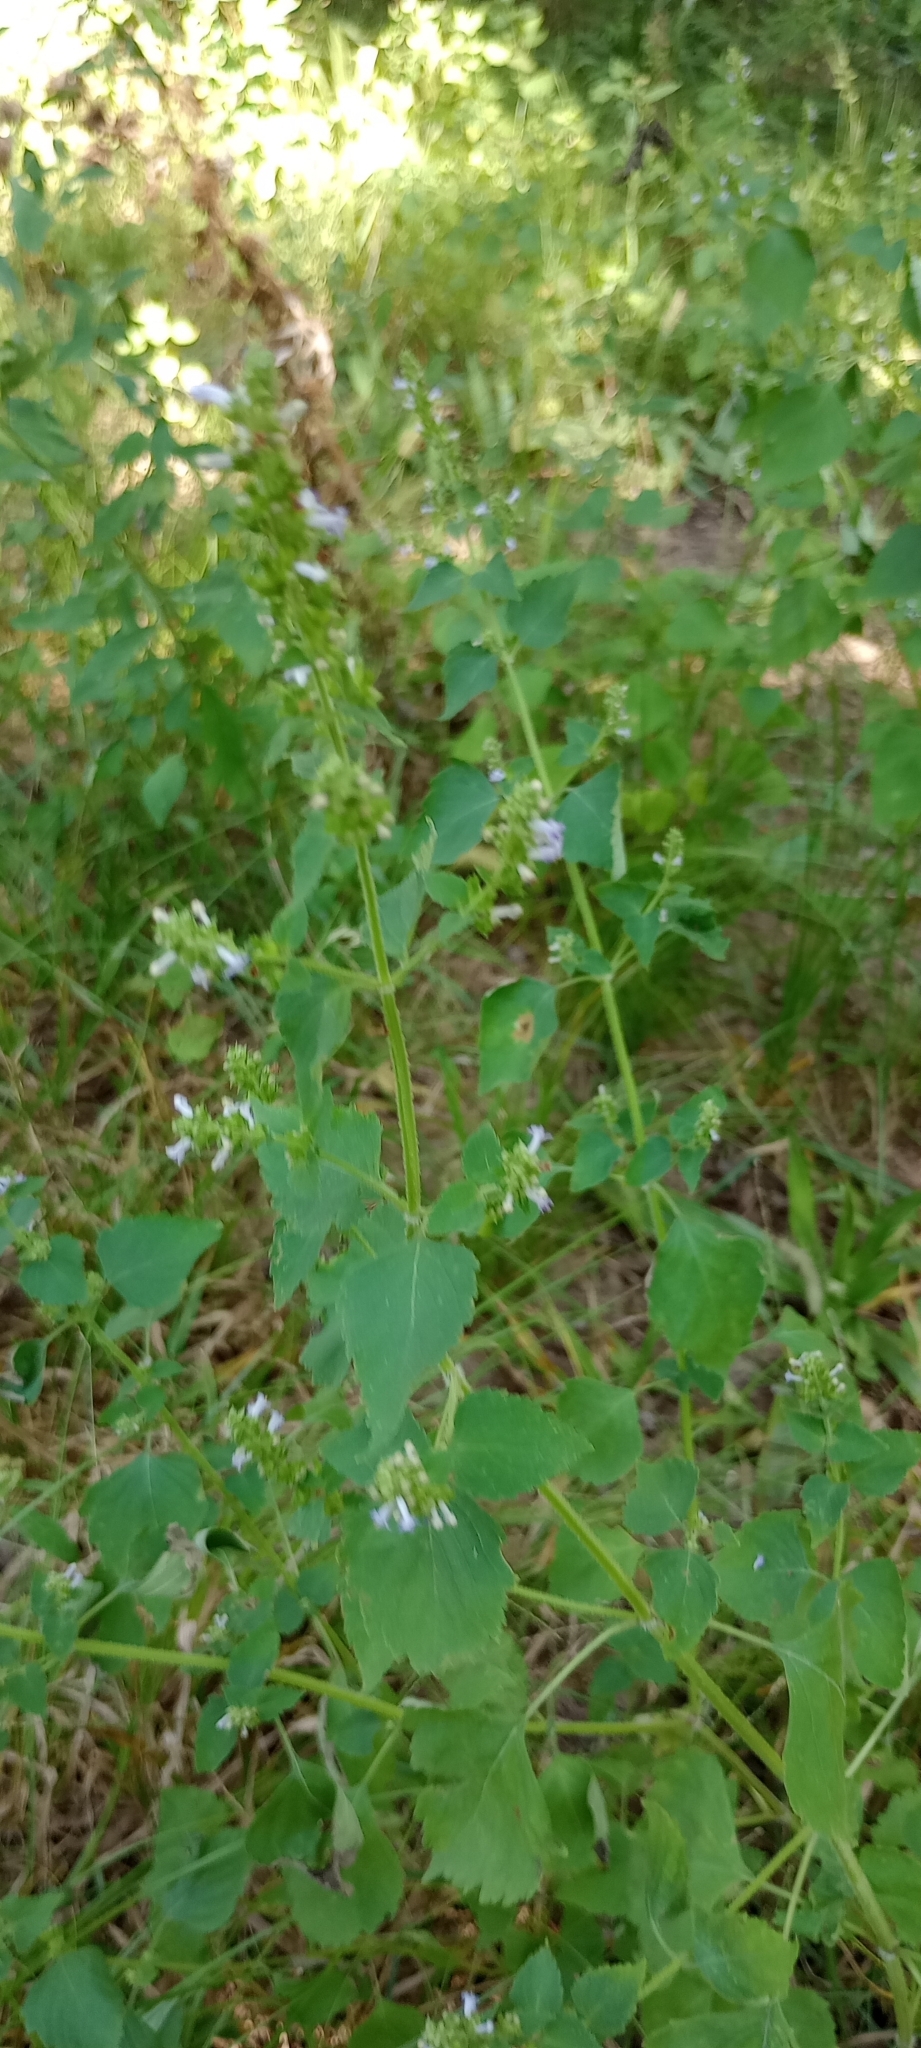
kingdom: Plantae
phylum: Tracheophyta
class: Magnoliopsida
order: Lamiales
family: Lamiaceae
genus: Cantinoa
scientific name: Cantinoa mutabilis
